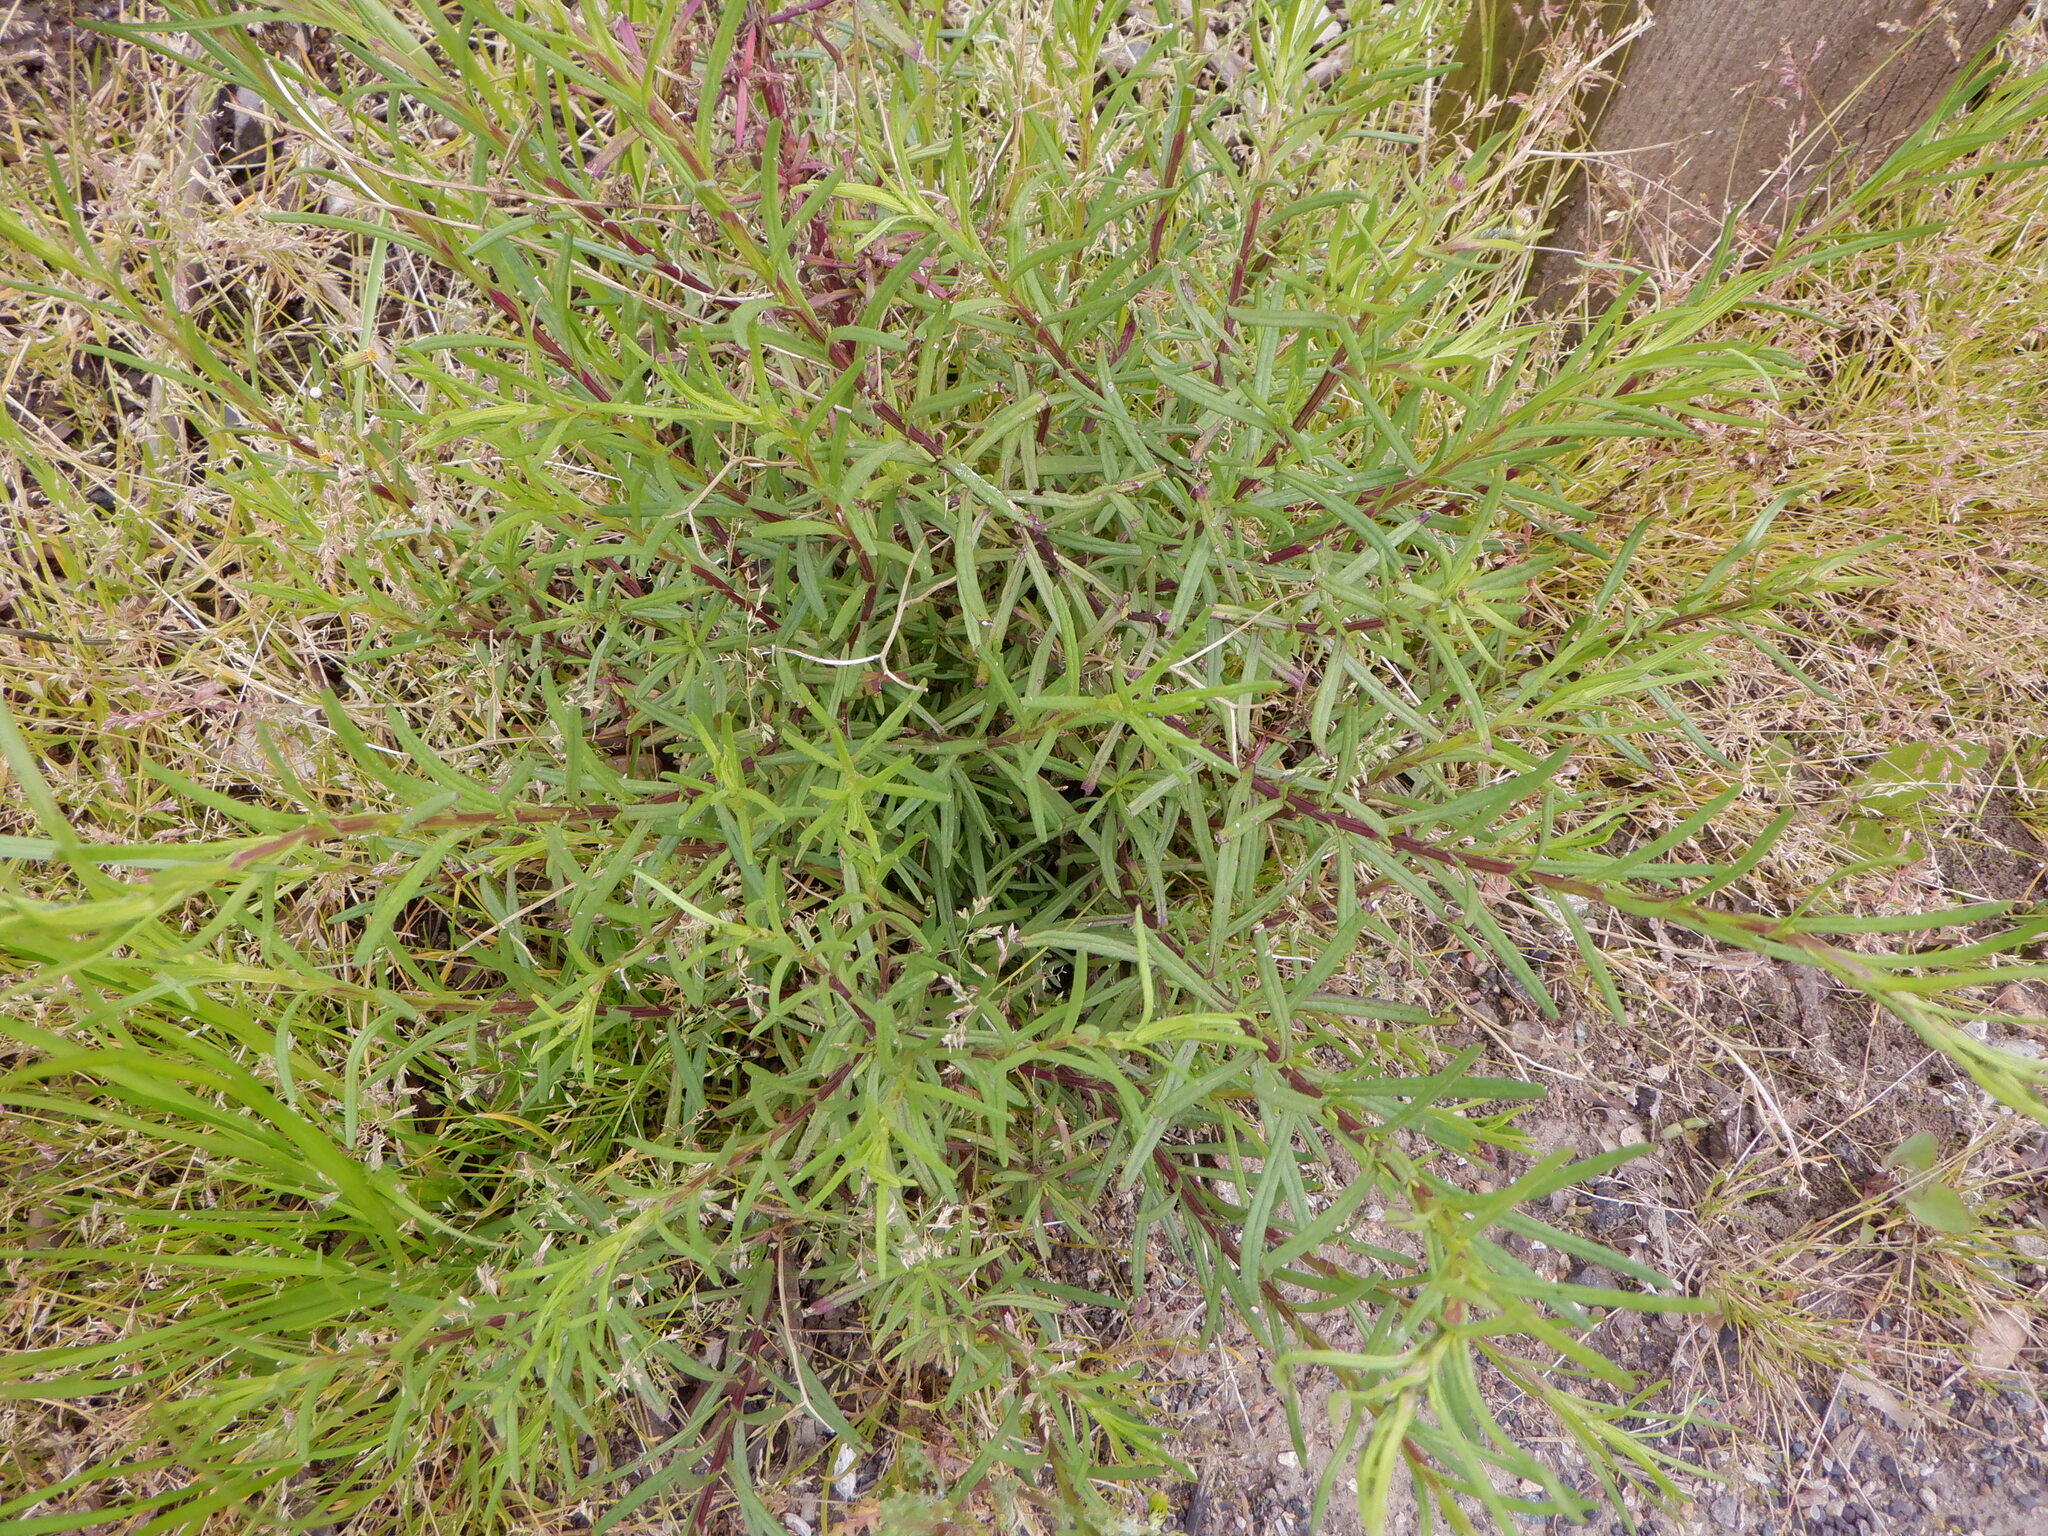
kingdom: Plantae
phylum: Tracheophyta
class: Magnoliopsida
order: Asterales
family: Asteraceae
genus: Senecio
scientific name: Senecio inaequidens
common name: Narrow-leaved ragwort
